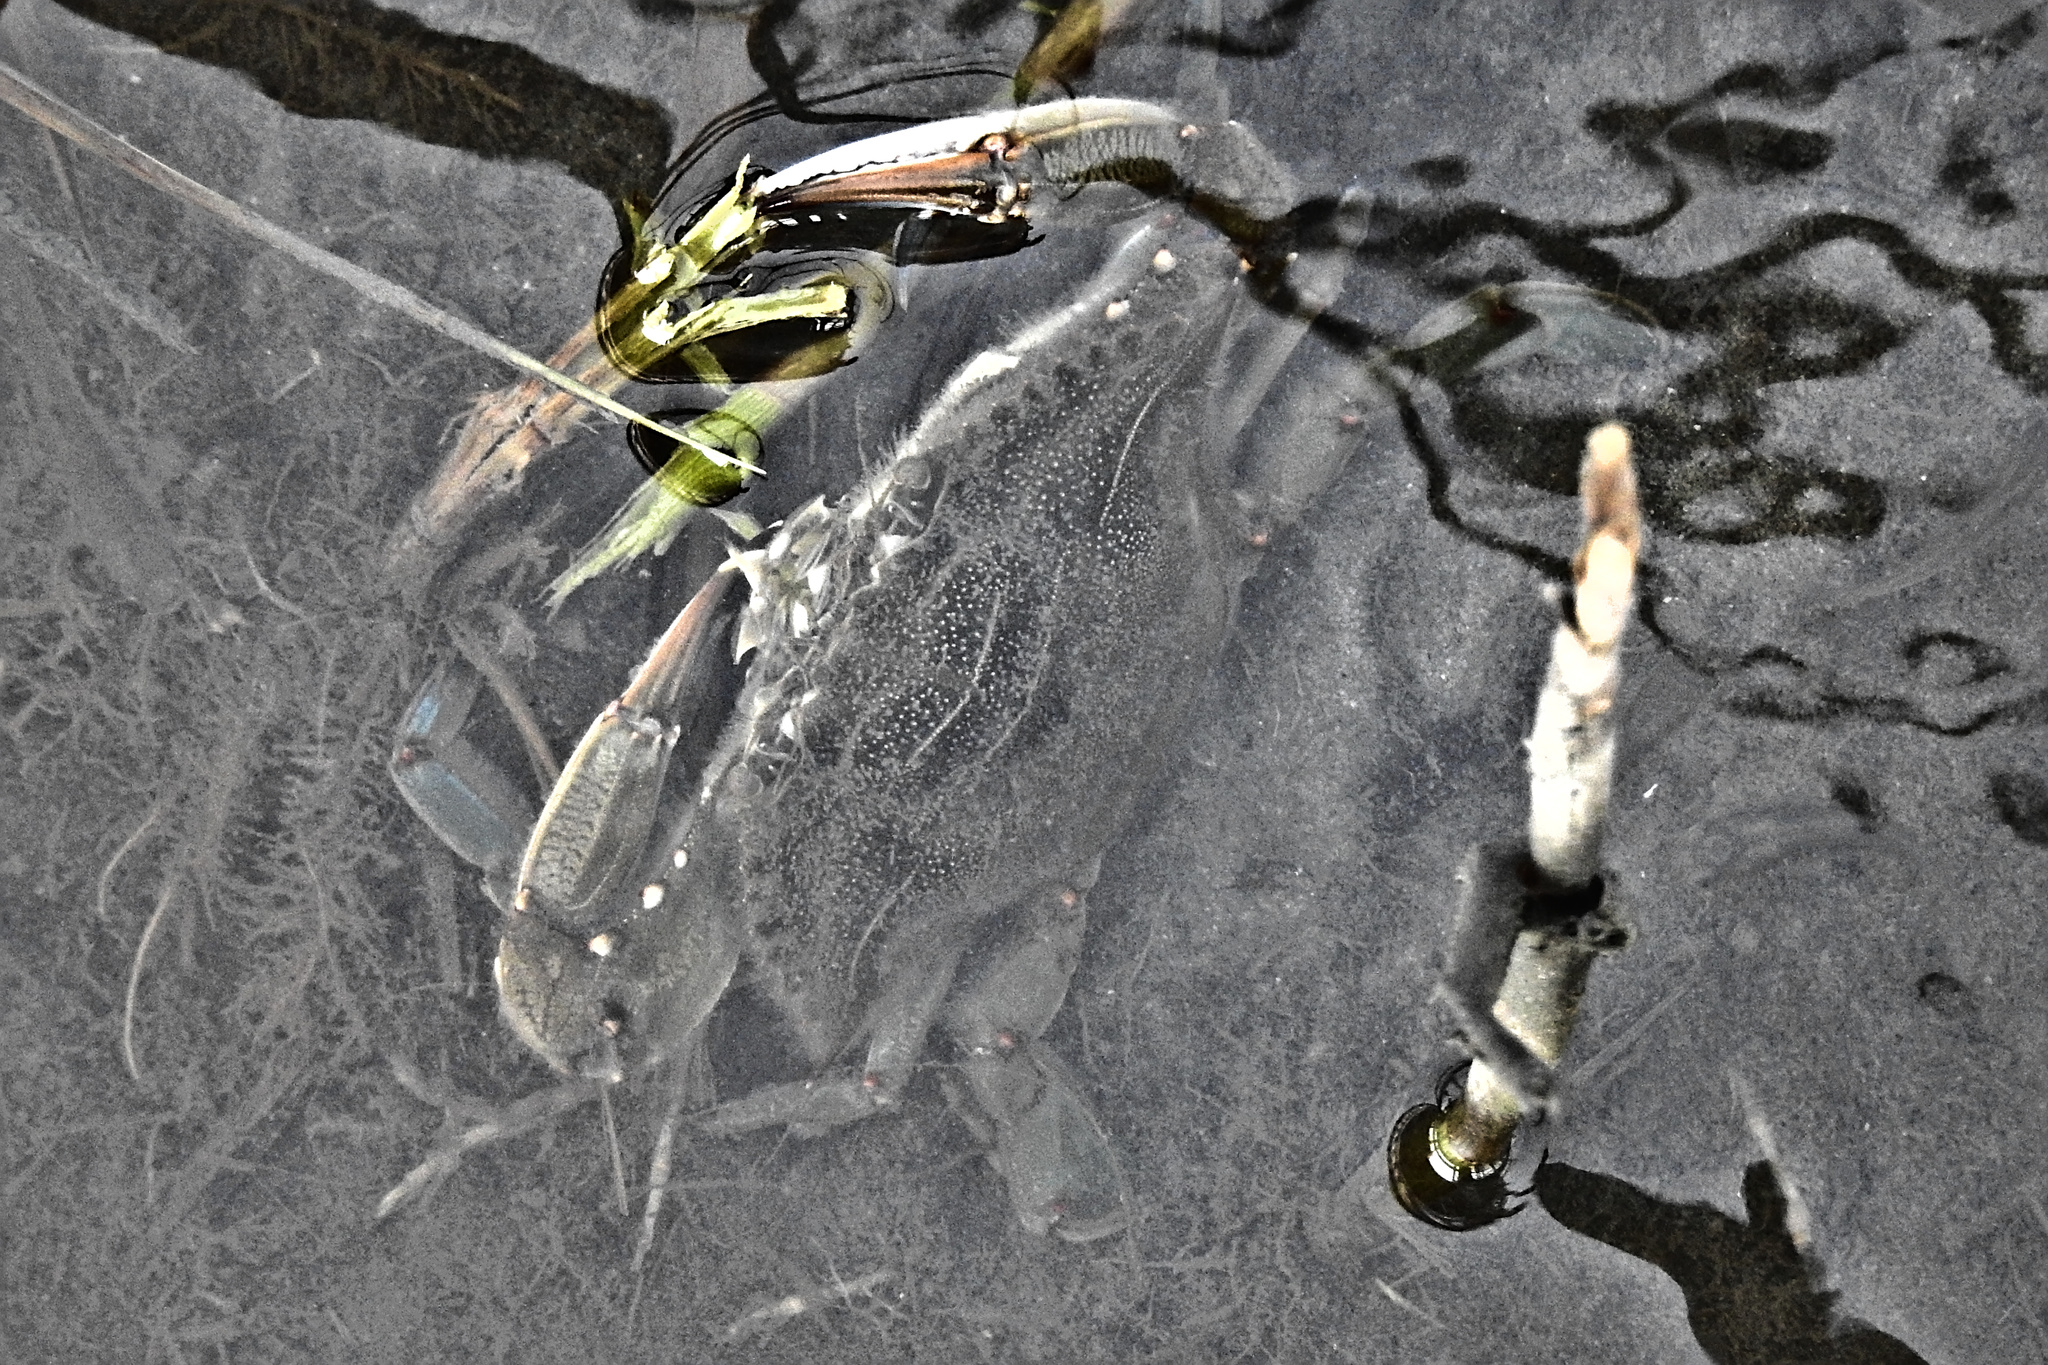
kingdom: Animalia
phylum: Arthropoda
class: Malacostraca
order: Decapoda
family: Portunidae
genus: Callinectes
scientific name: Callinectes sapidus
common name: Blue crab
